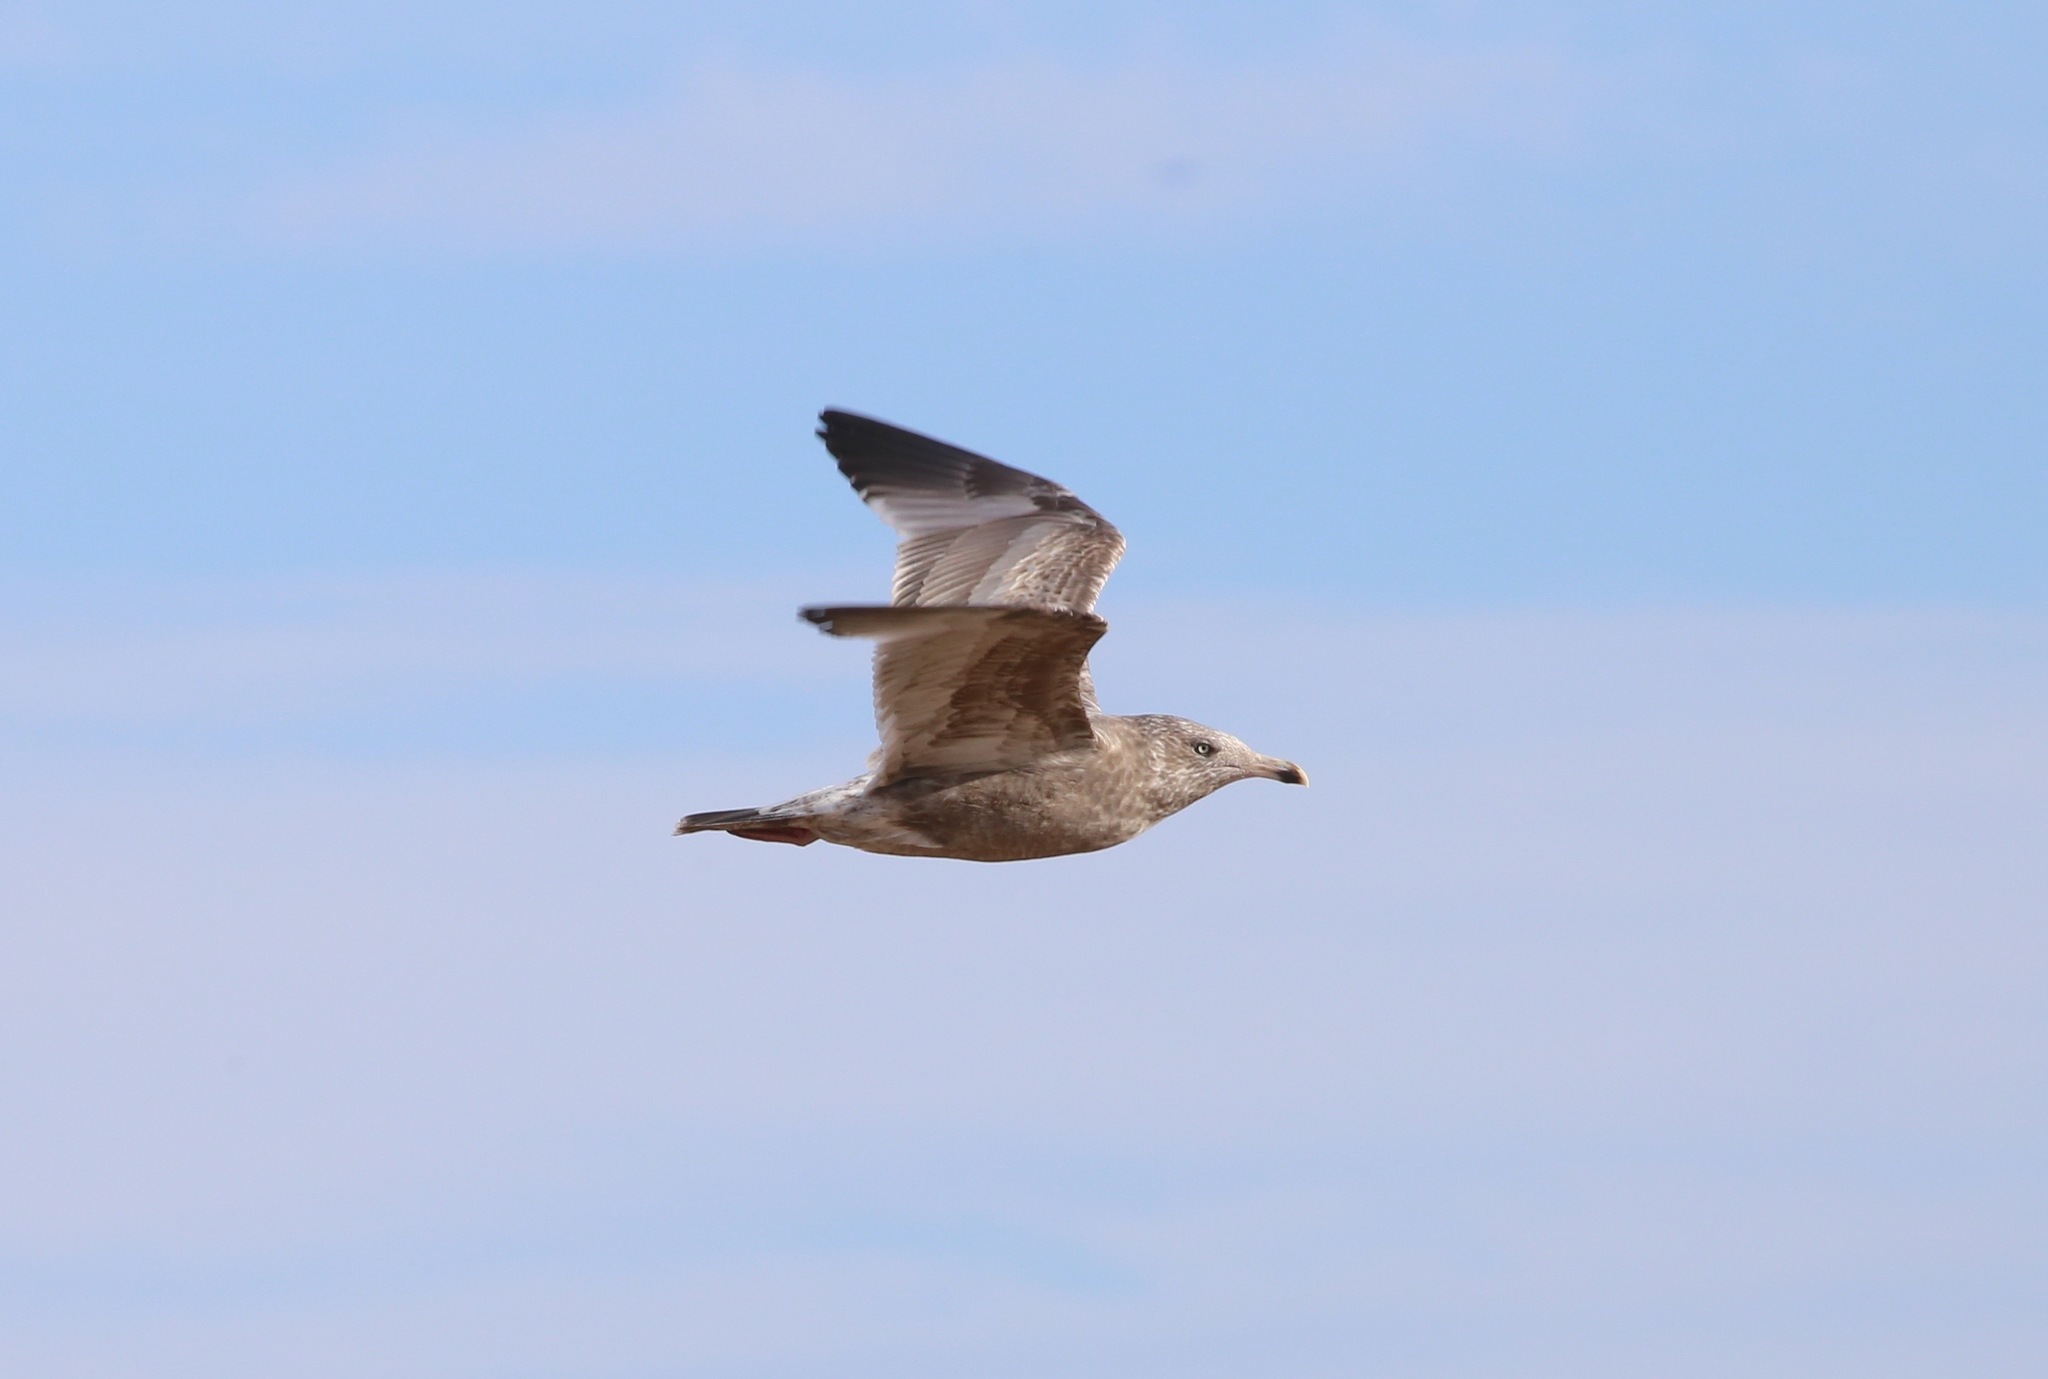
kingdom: Animalia
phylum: Chordata
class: Aves
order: Charadriiformes
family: Laridae
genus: Larus
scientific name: Larus argentatus
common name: Herring gull
